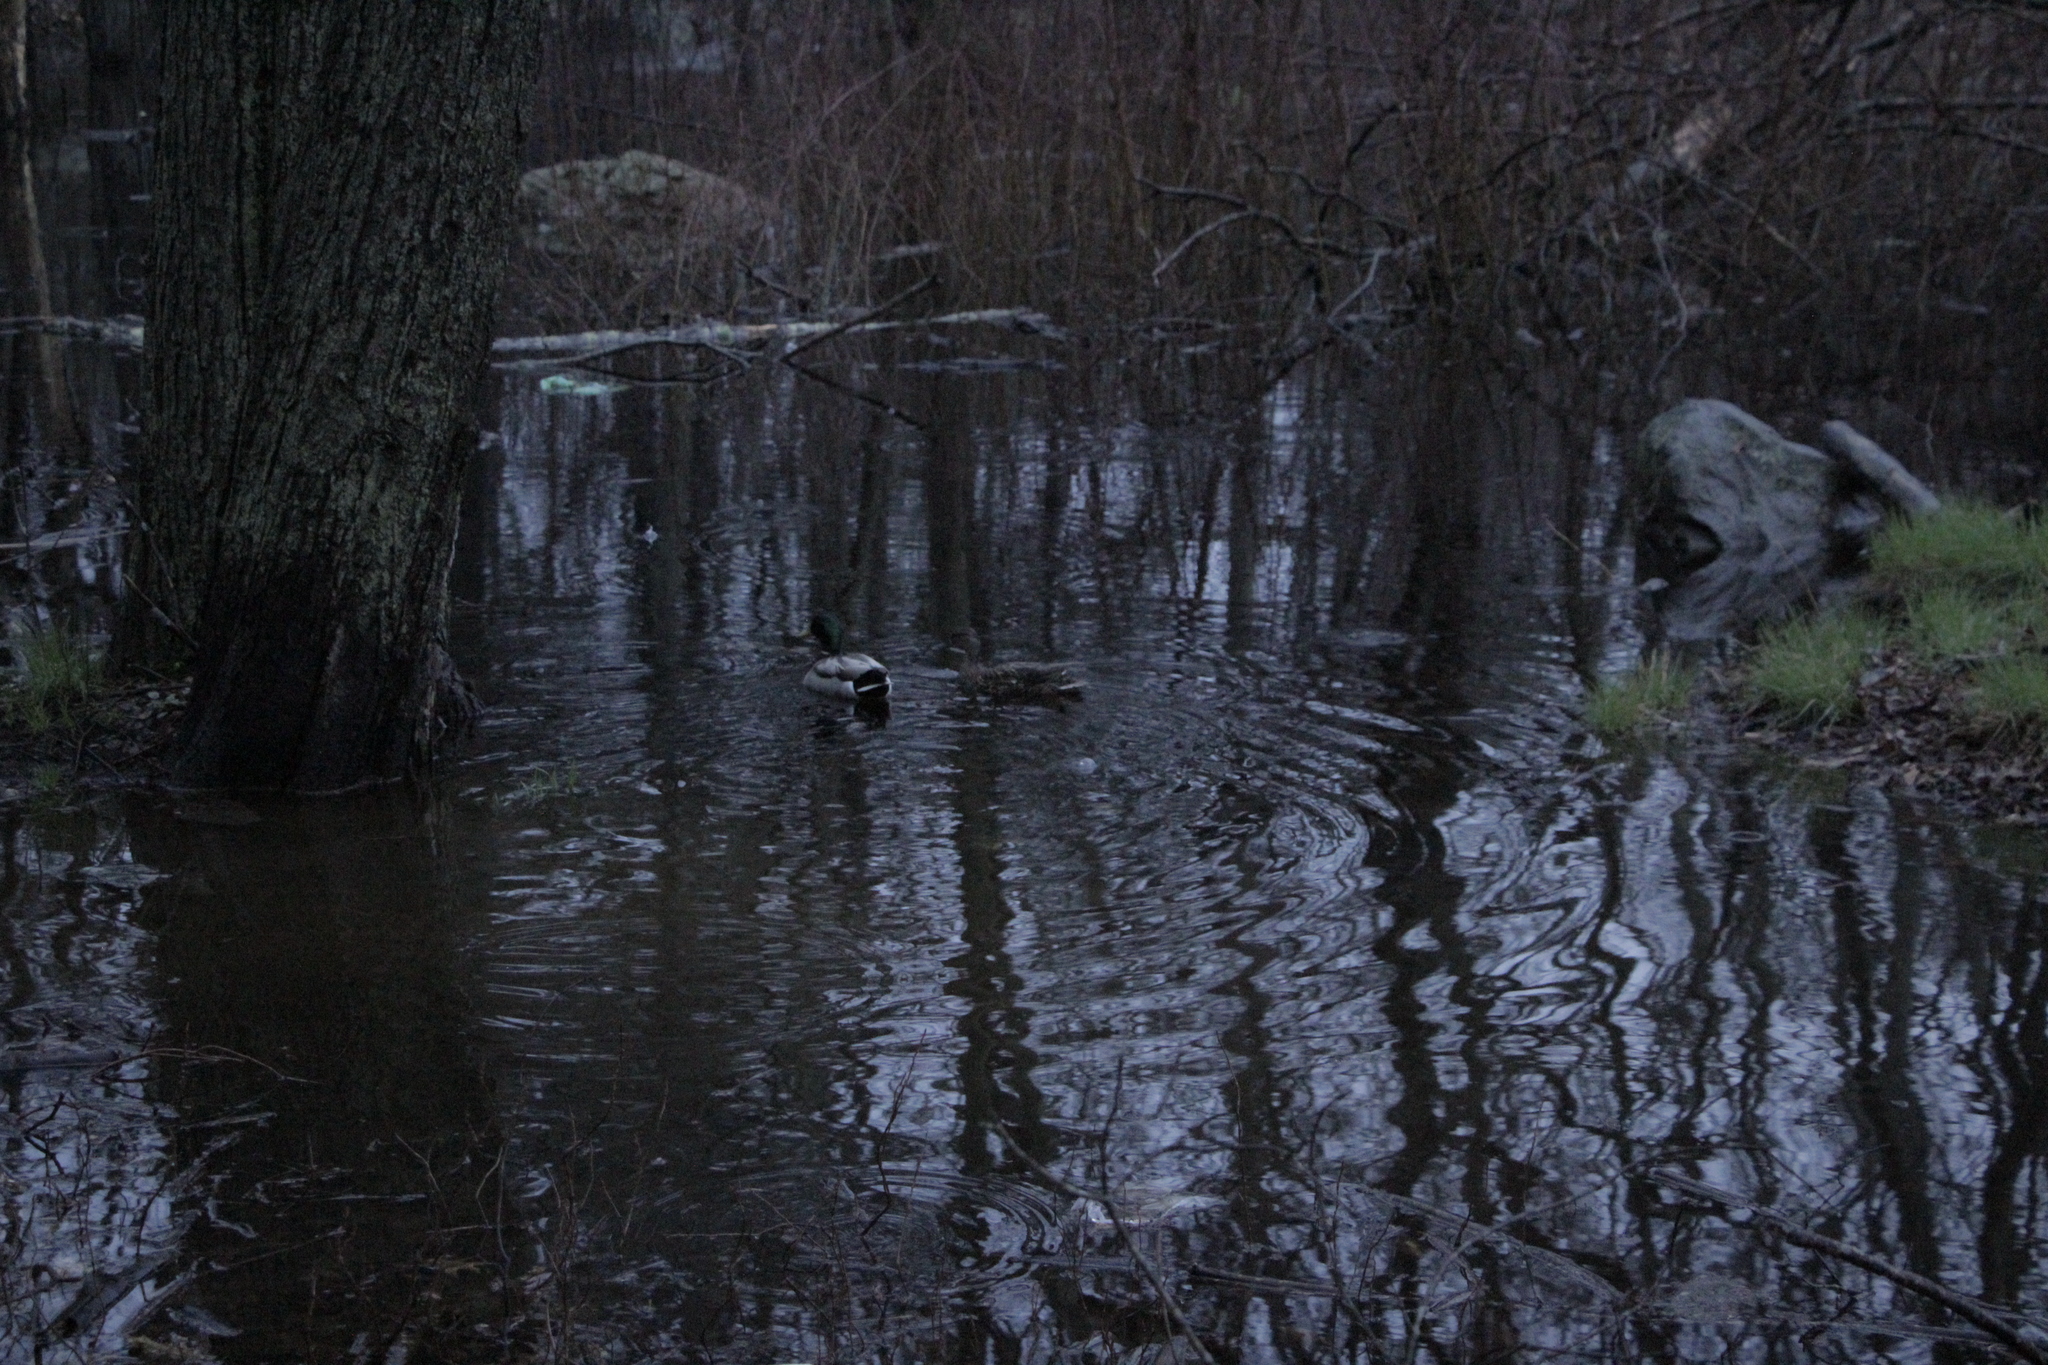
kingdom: Animalia
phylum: Chordata
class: Aves
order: Anseriformes
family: Anatidae
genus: Anas
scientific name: Anas platyrhynchos
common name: Mallard
